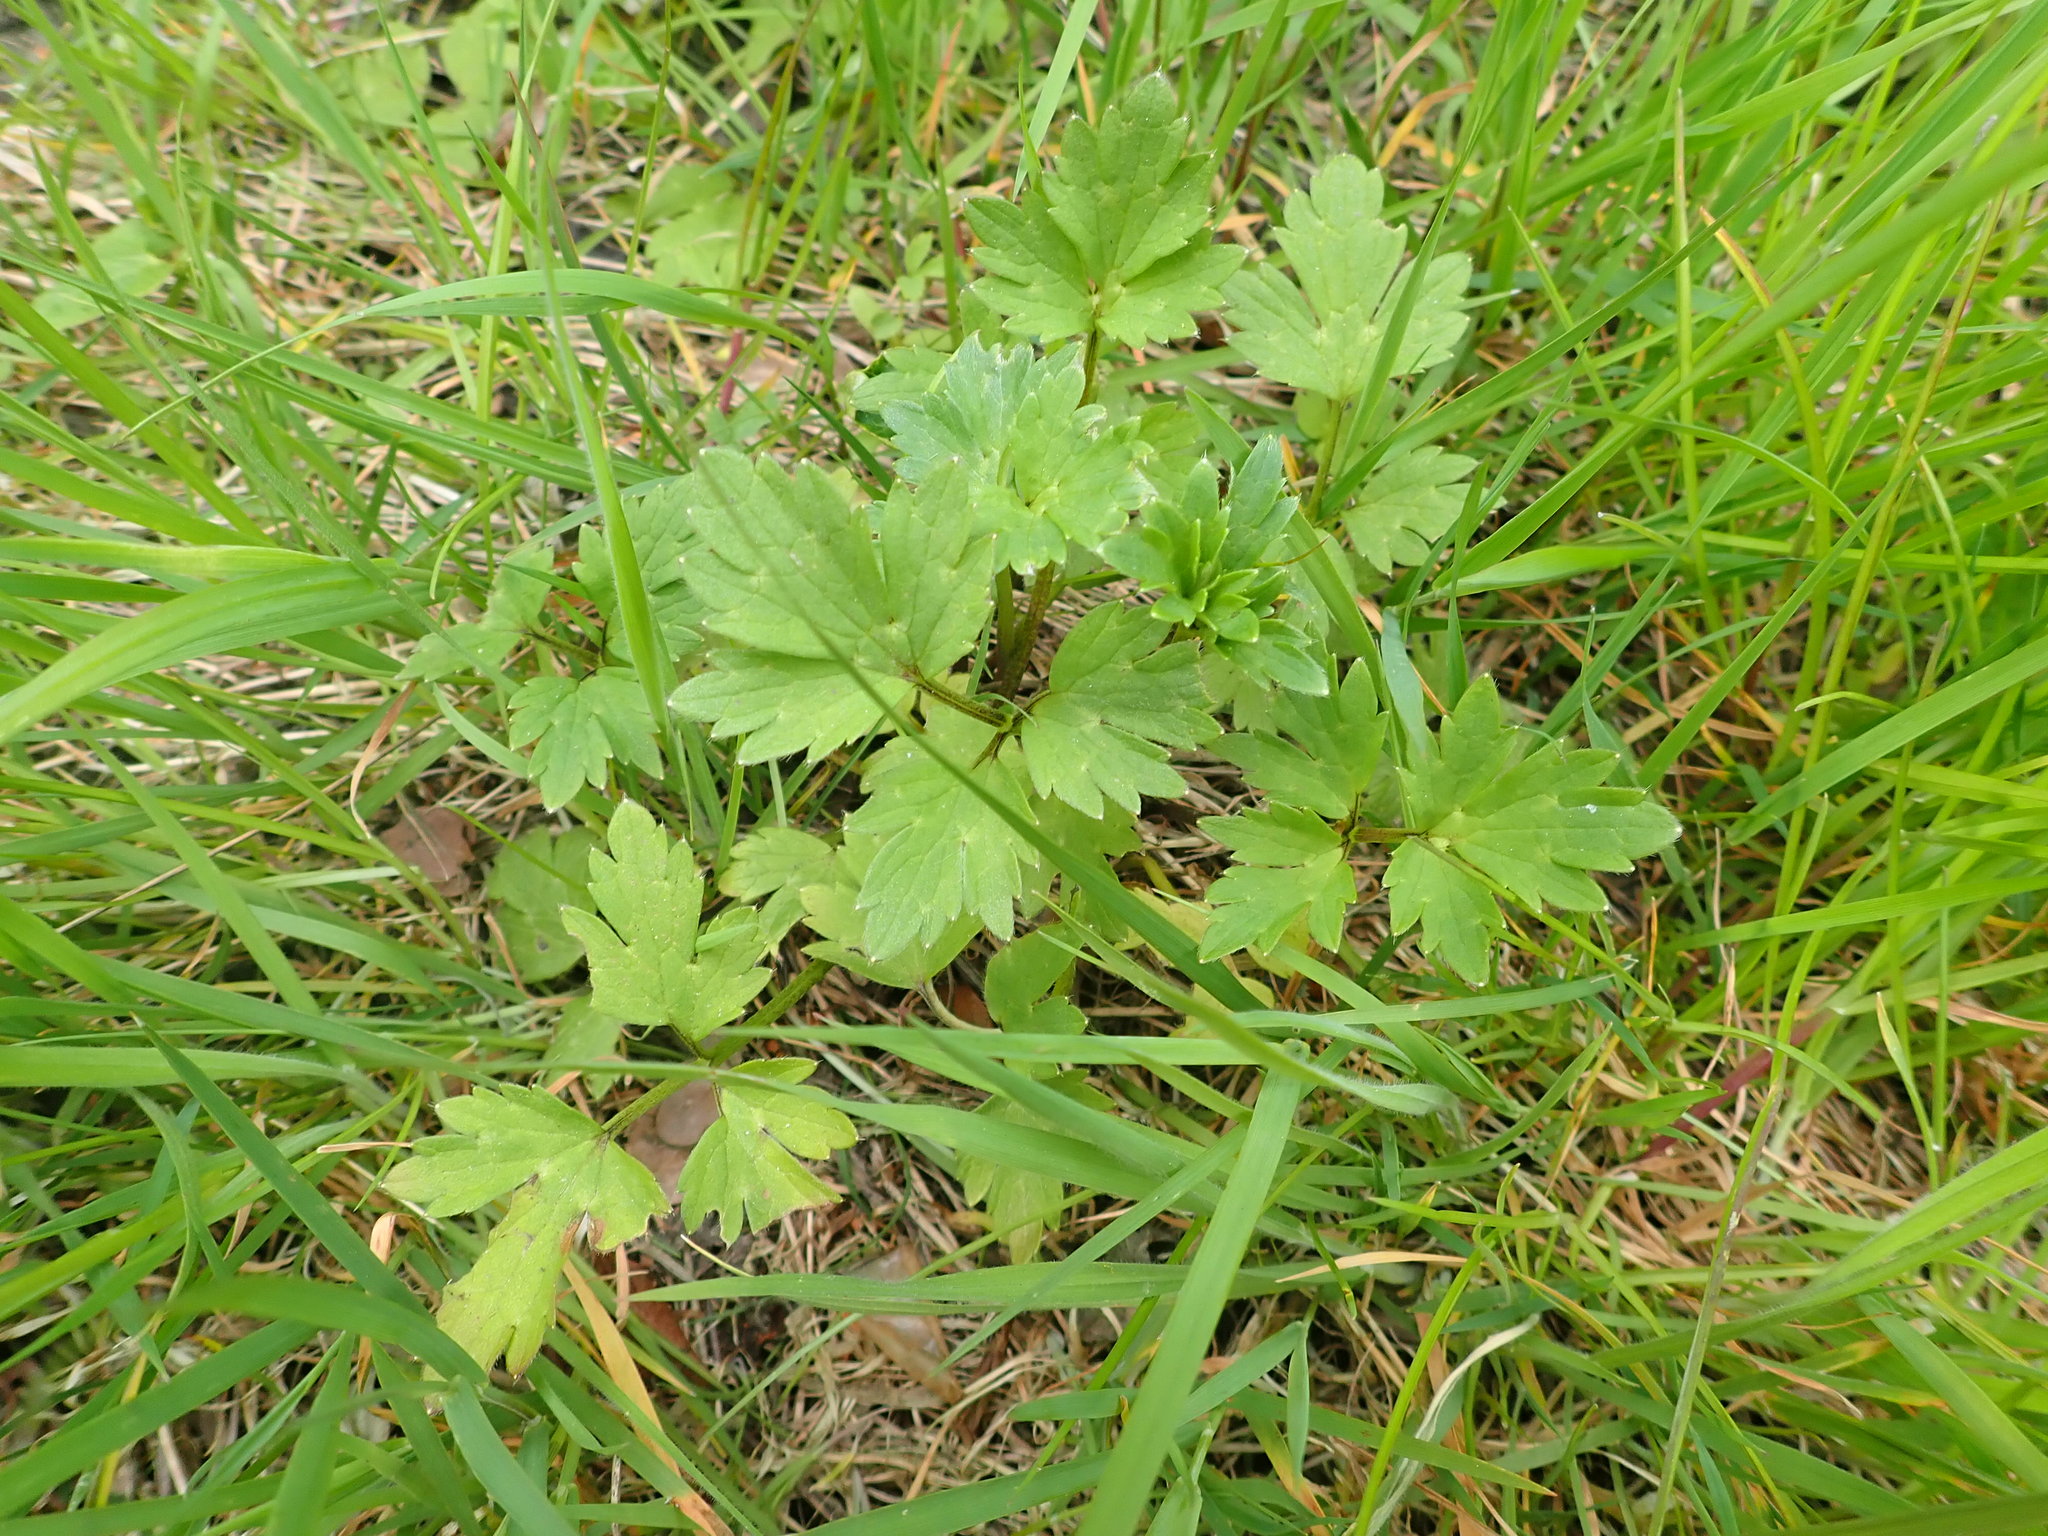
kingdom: Plantae
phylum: Tracheophyta
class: Magnoliopsida
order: Ranunculales
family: Ranunculaceae
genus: Ranunculus
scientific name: Ranunculus repens
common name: Creeping buttercup
